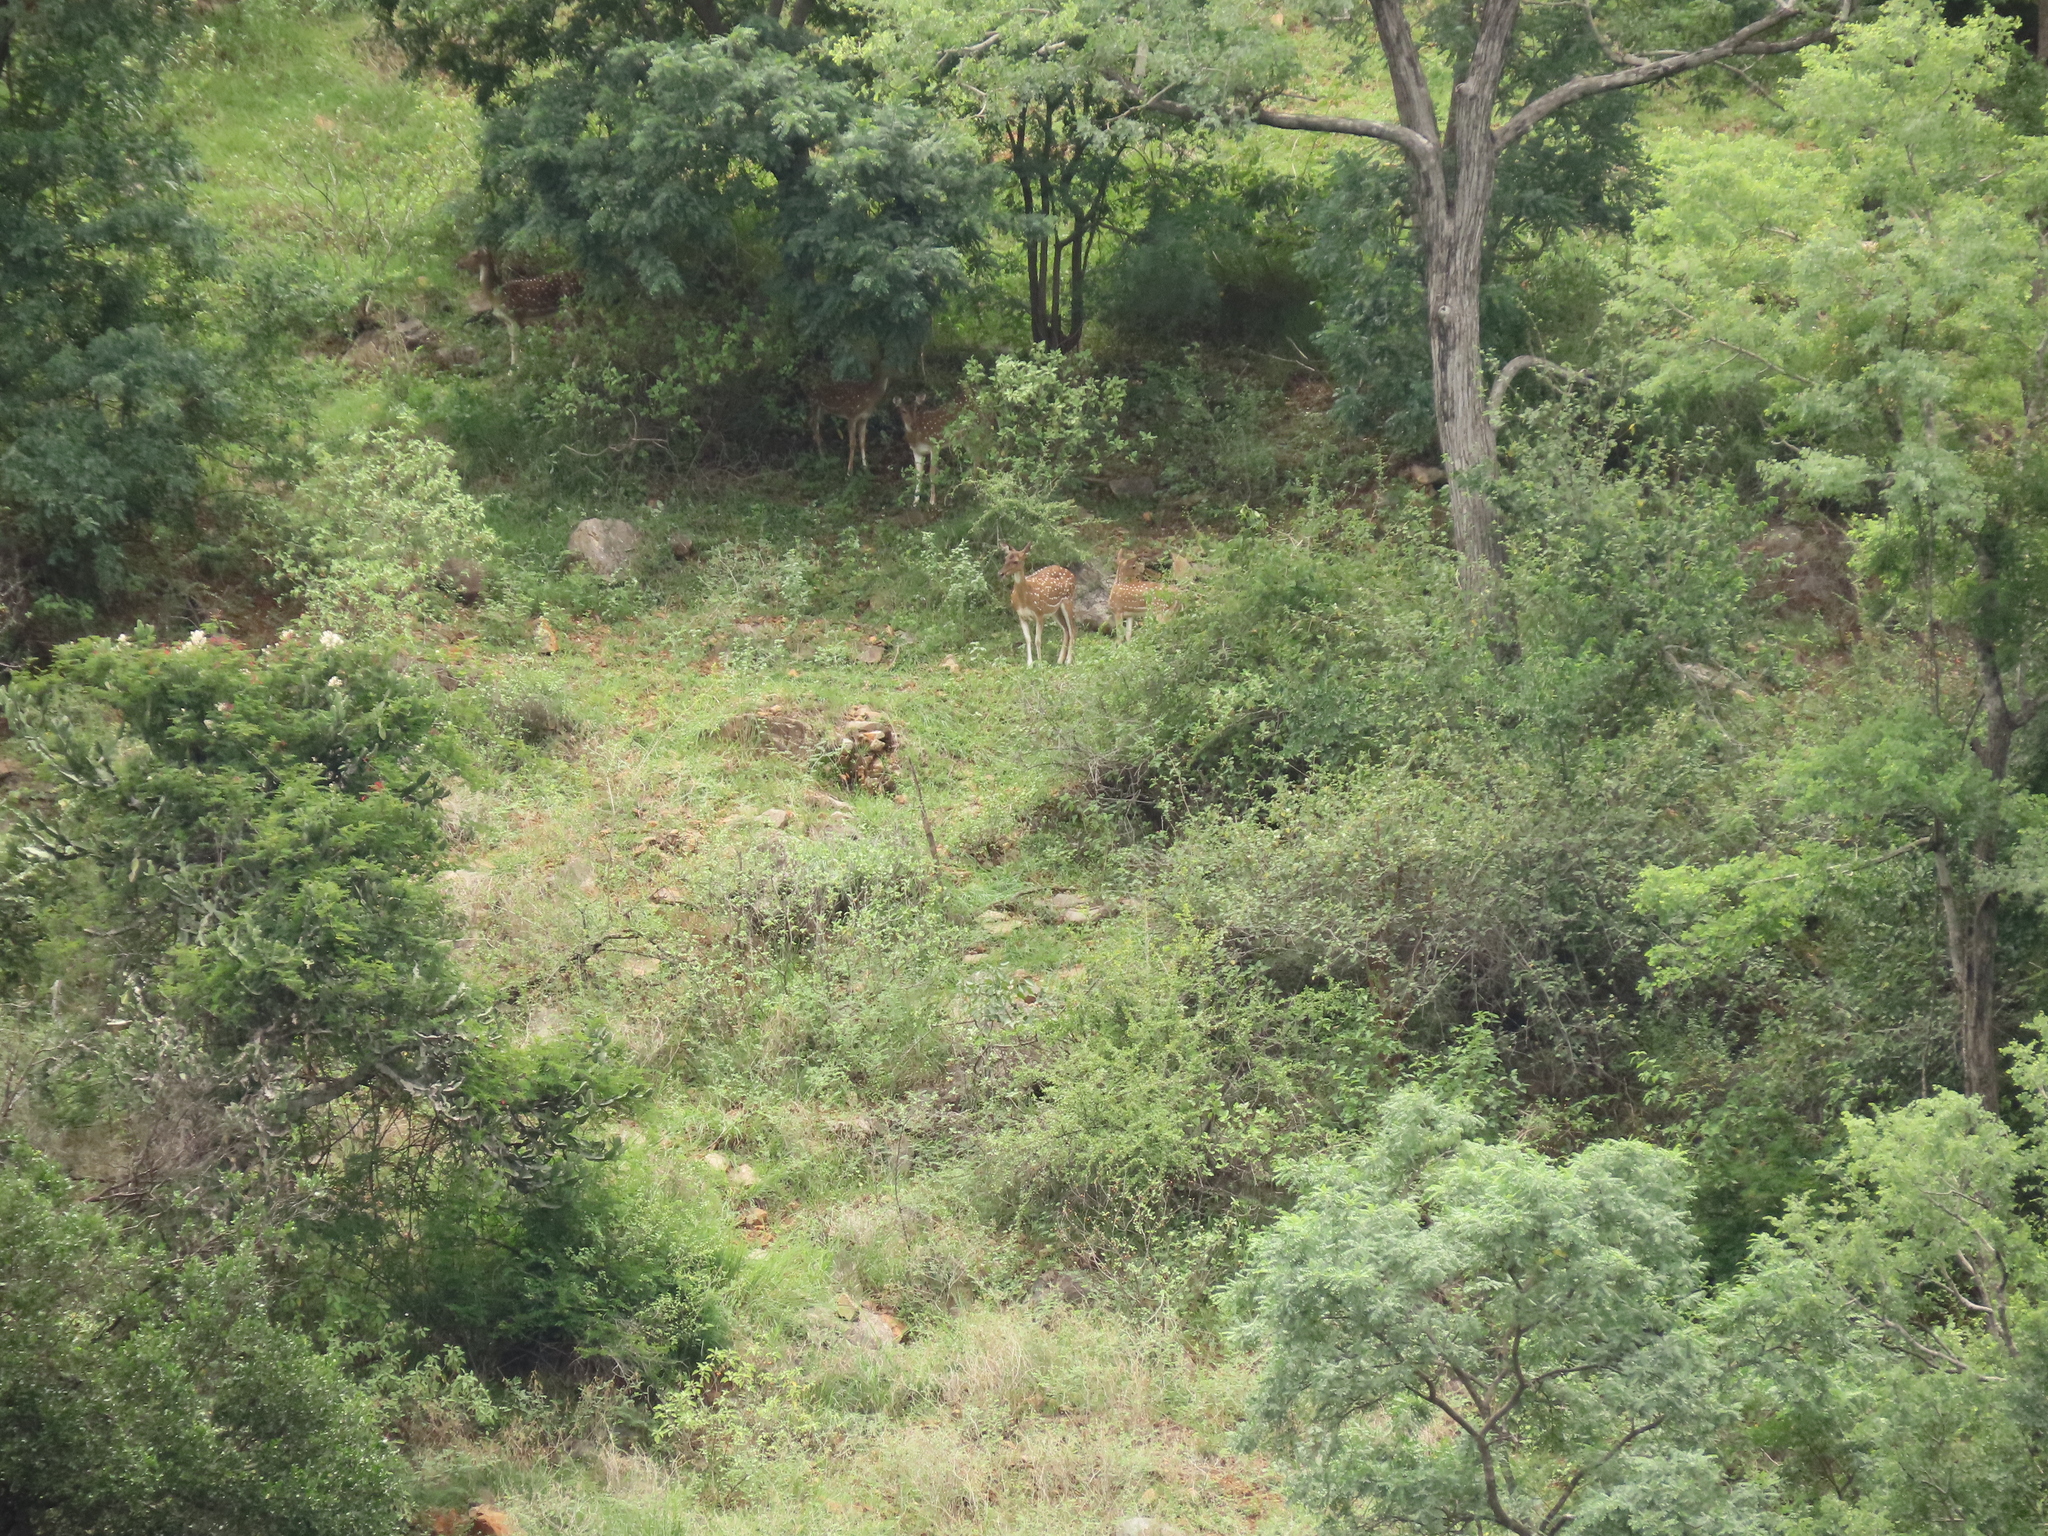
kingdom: Animalia
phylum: Chordata
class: Mammalia
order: Artiodactyla
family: Cervidae
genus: Axis
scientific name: Axis axis
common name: Chital
